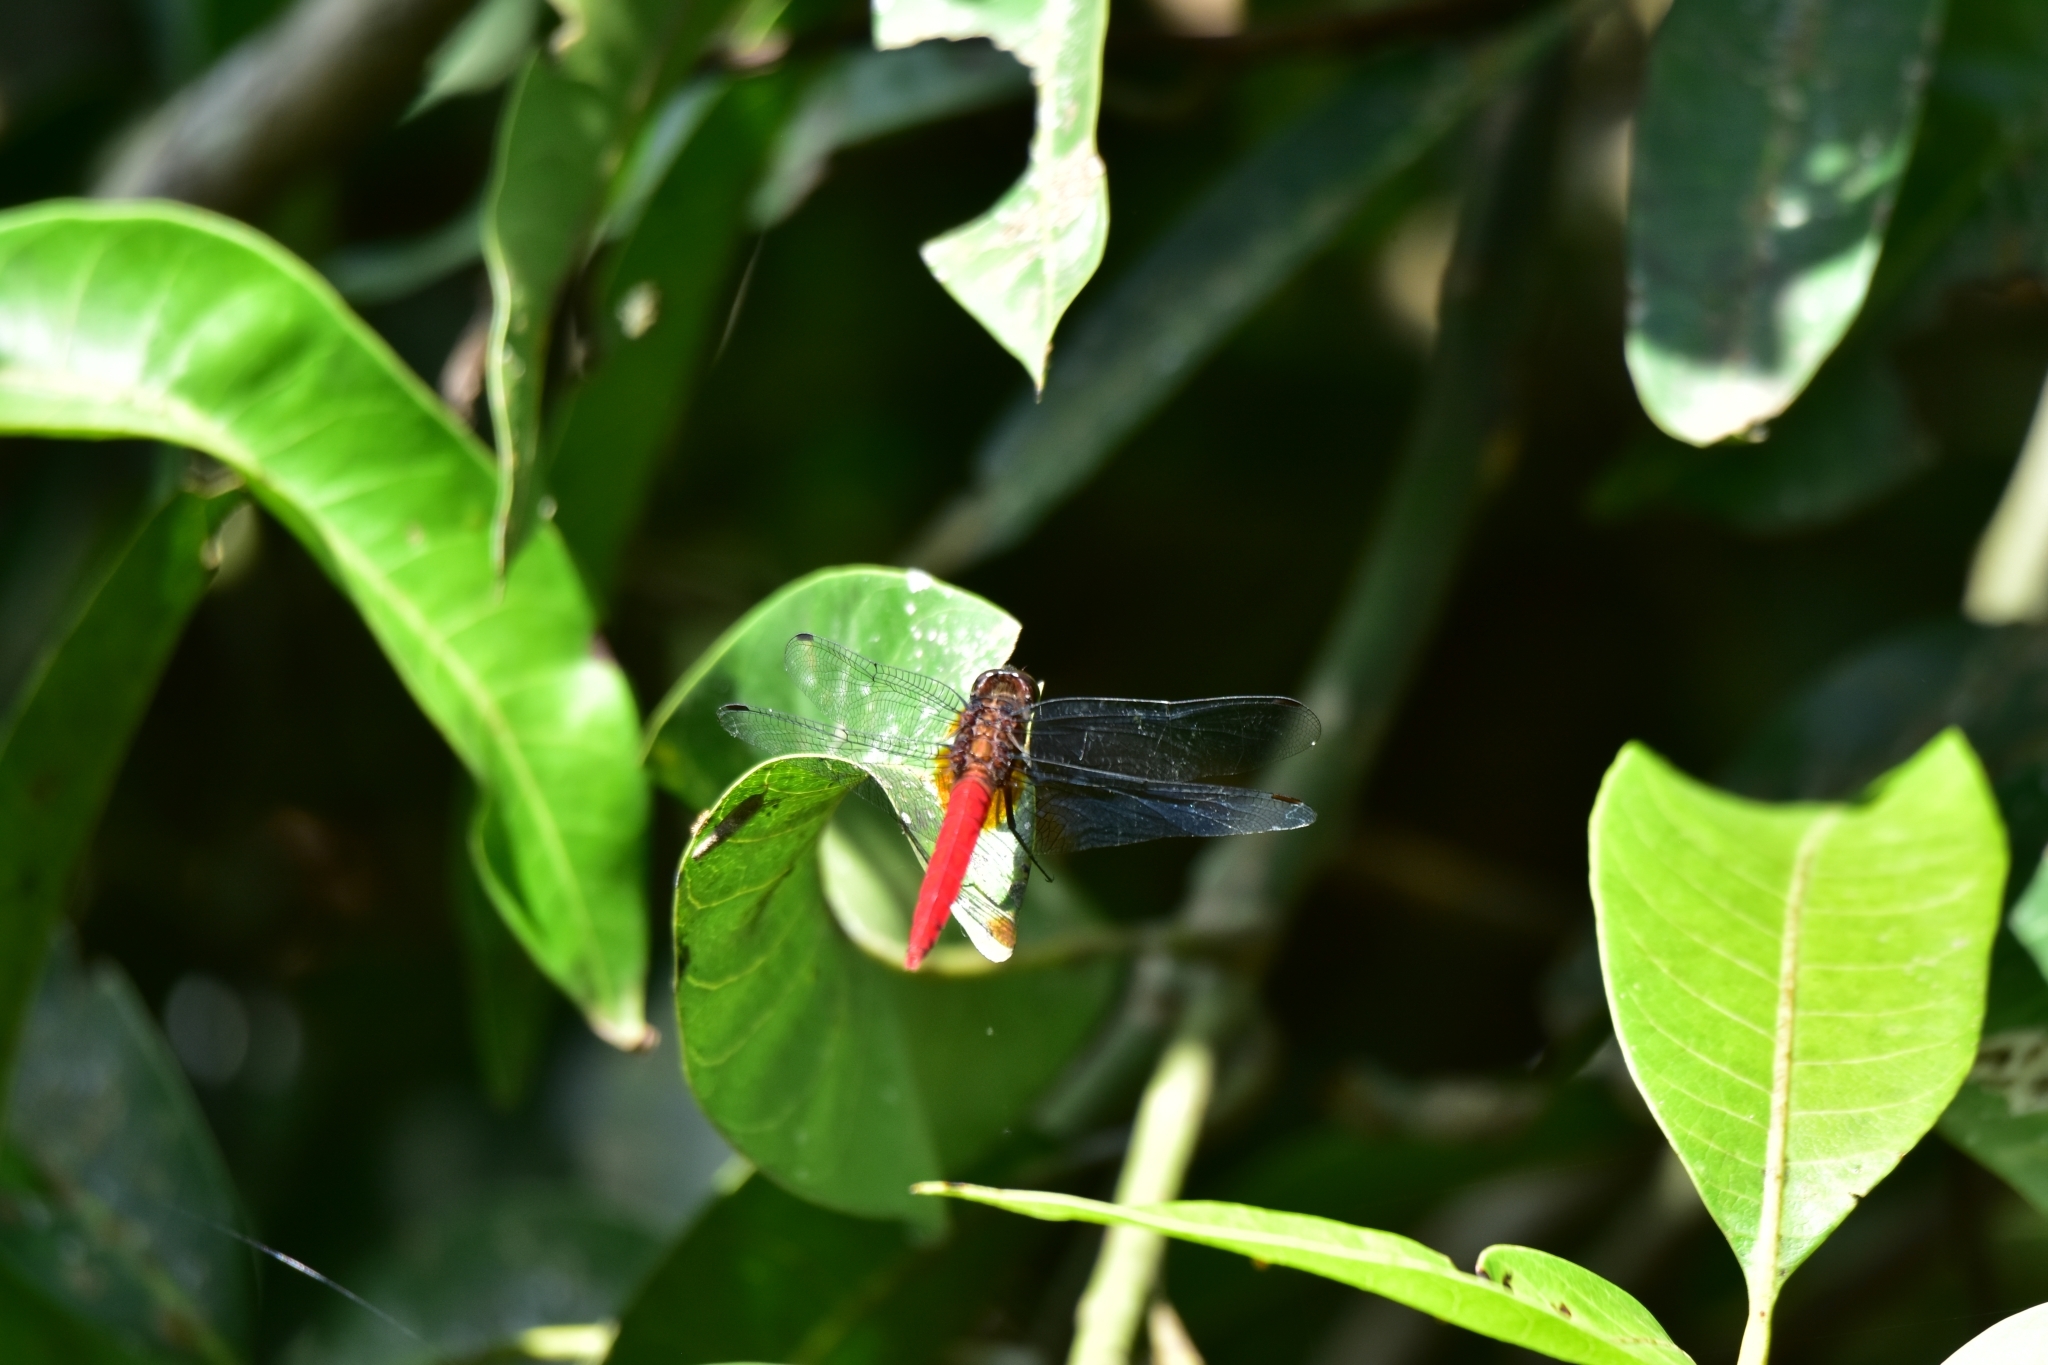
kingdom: Animalia
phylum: Arthropoda
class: Insecta
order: Odonata
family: Libellulidae
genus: Orthetrum
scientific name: Orthetrum chrysis
